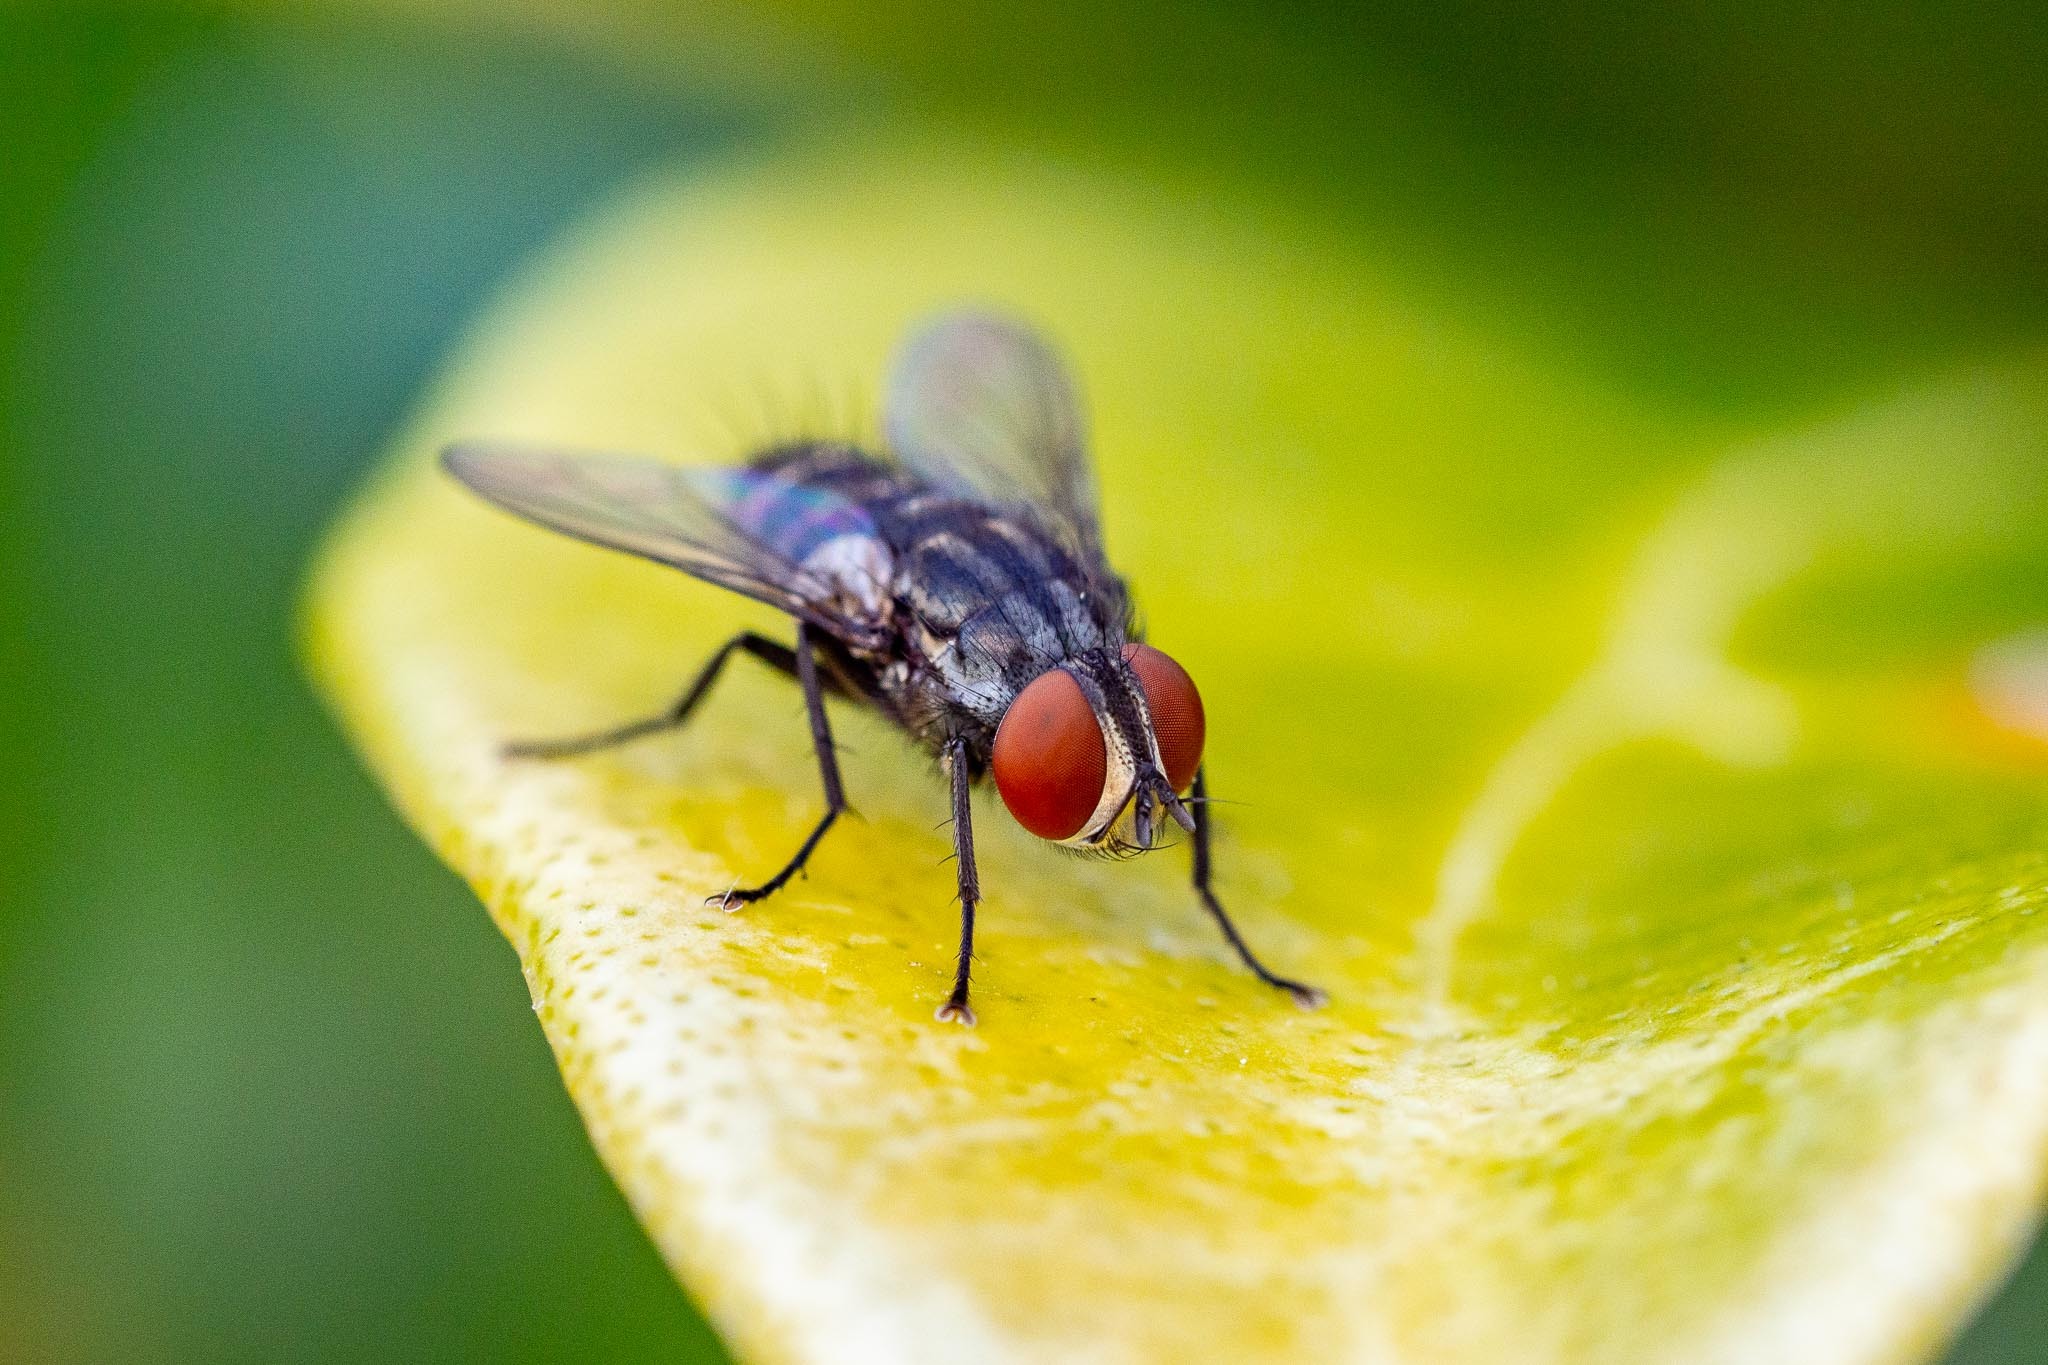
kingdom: Animalia
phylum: Arthropoda
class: Insecta
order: Diptera
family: Sarcophagidae
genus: Amobia
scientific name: Amobia signata
